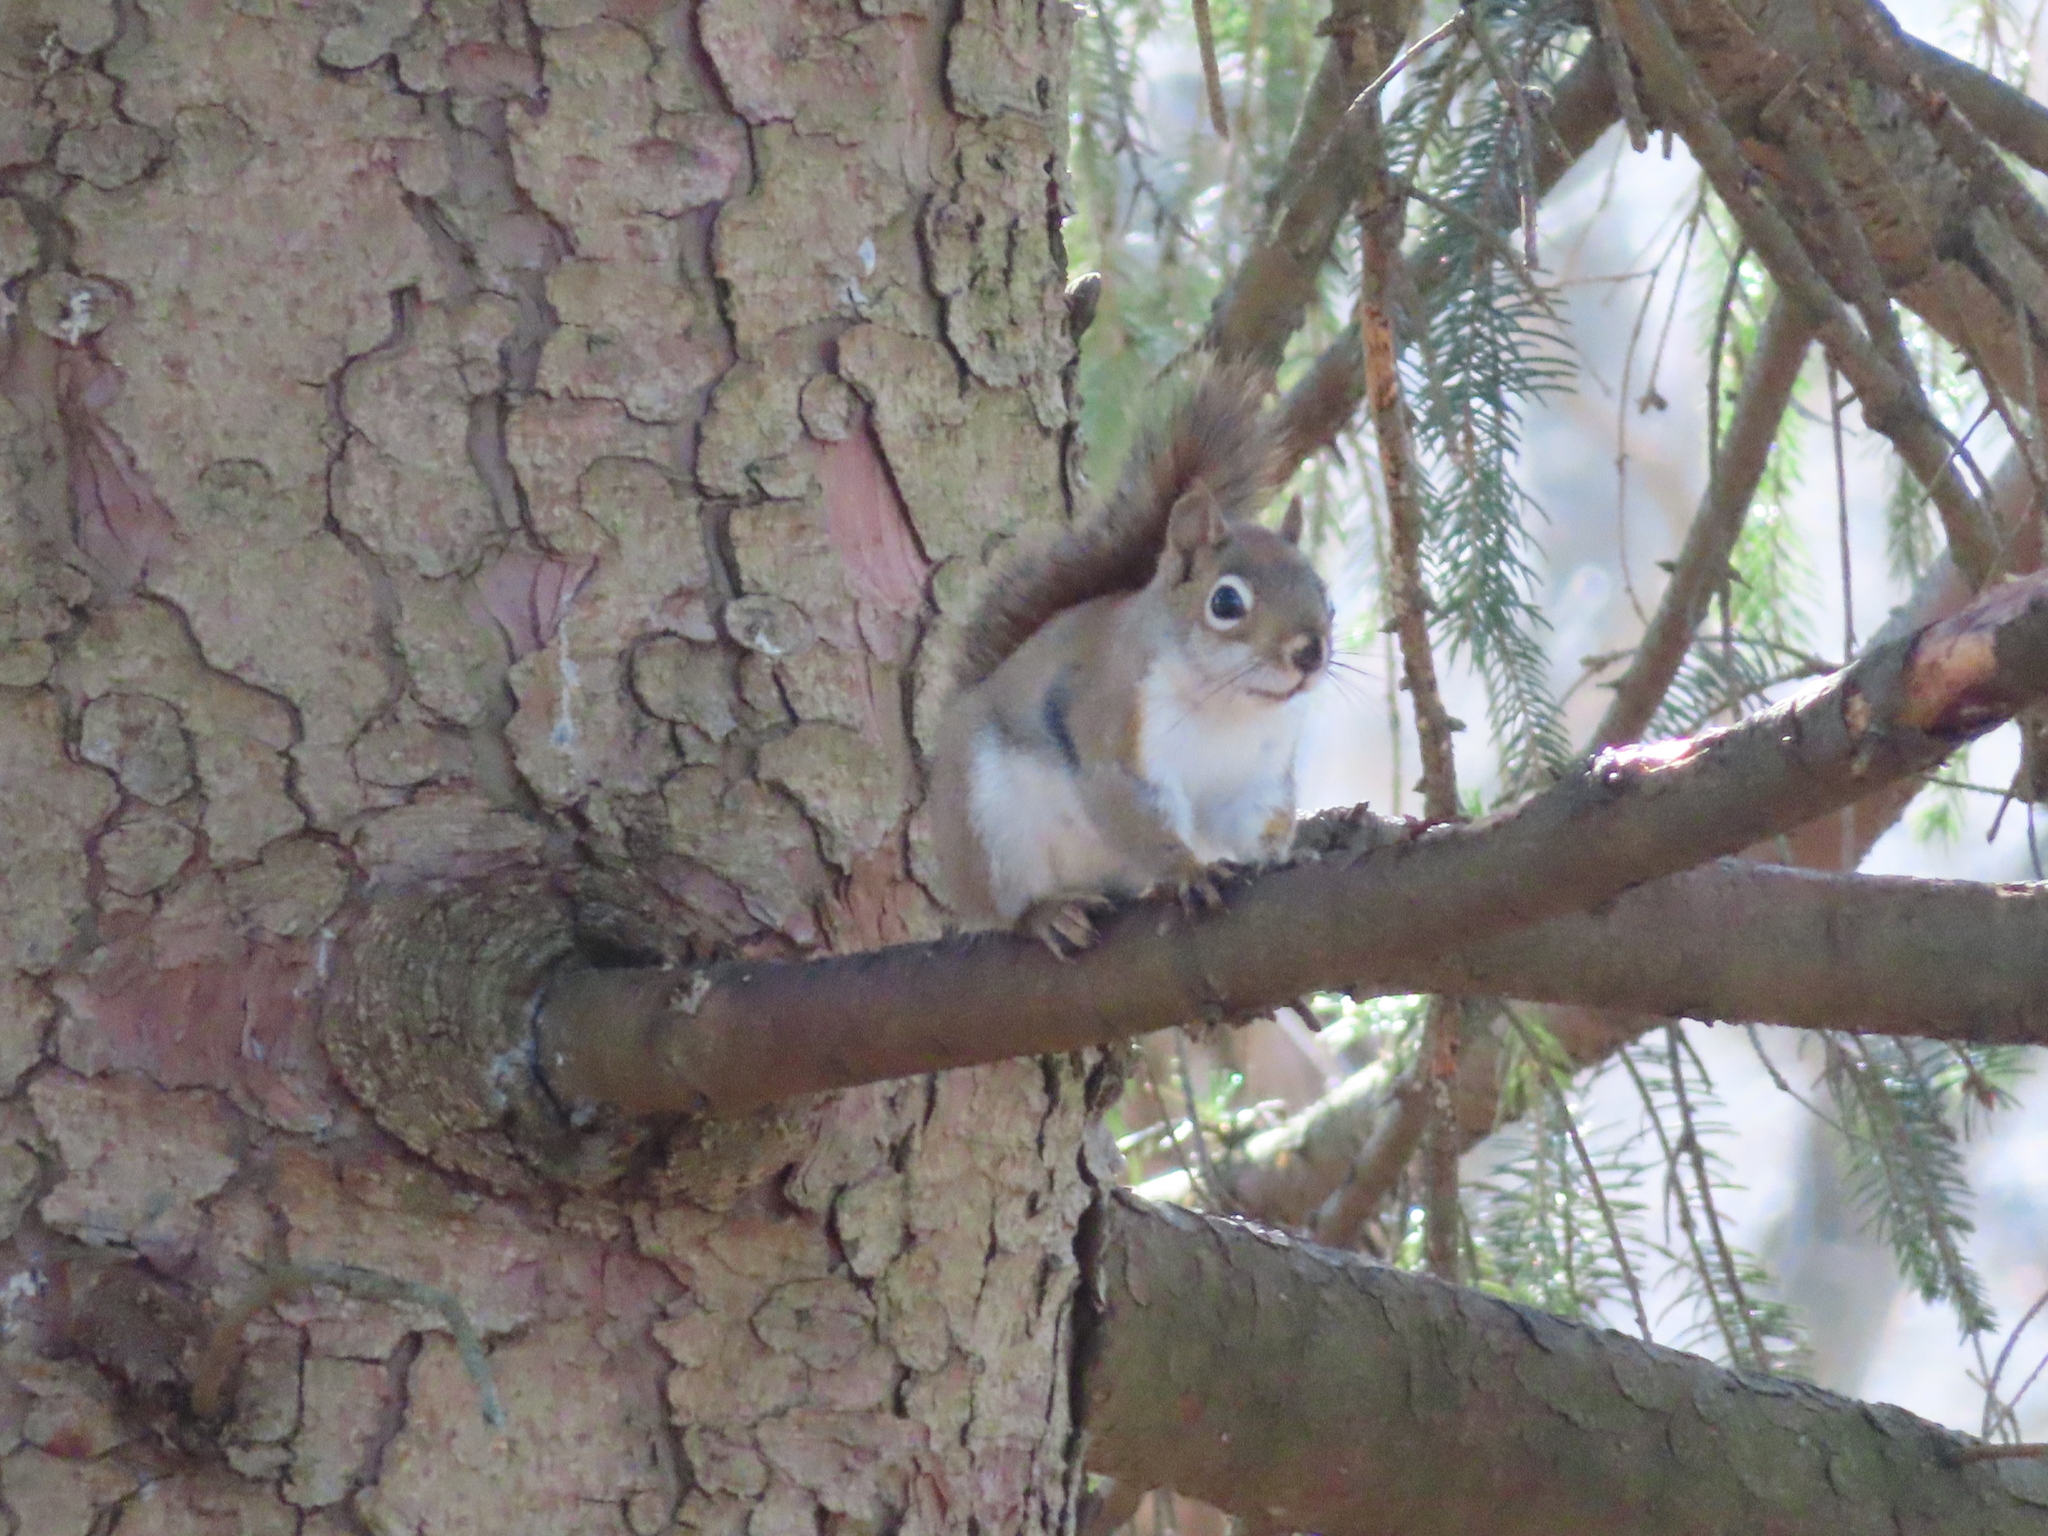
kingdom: Animalia
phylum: Chordata
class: Mammalia
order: Rodentia
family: Sciuridae
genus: Tamiasciurus
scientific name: Tamiasciurus hudsonicus
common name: Red squirrel
